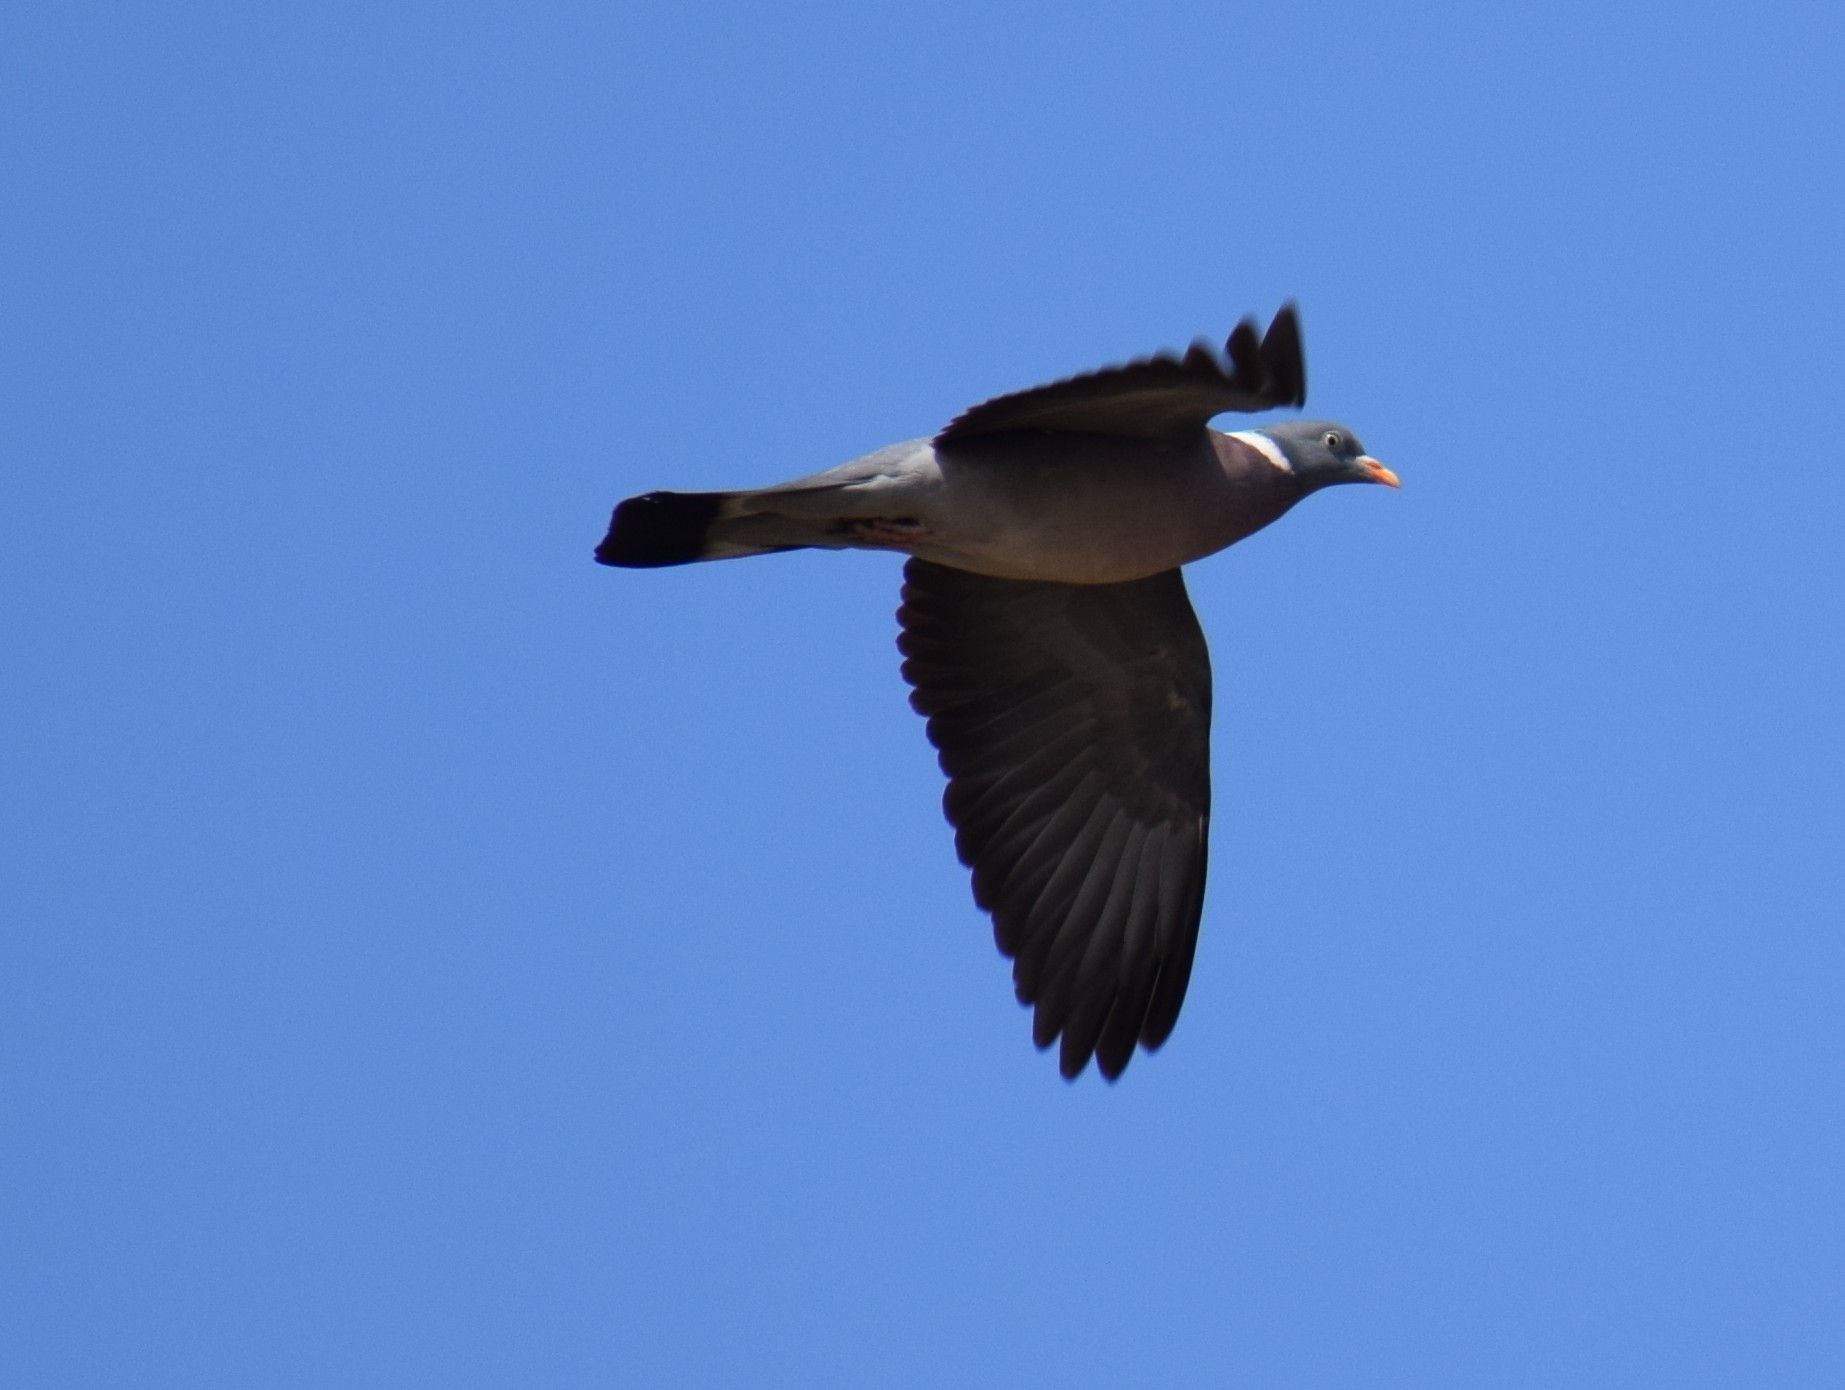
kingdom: Animalia
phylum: Chordata
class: Aves
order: Columbiformes
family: Columbidae
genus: Columba
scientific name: Columba palumbus
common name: Common wood pigeon
